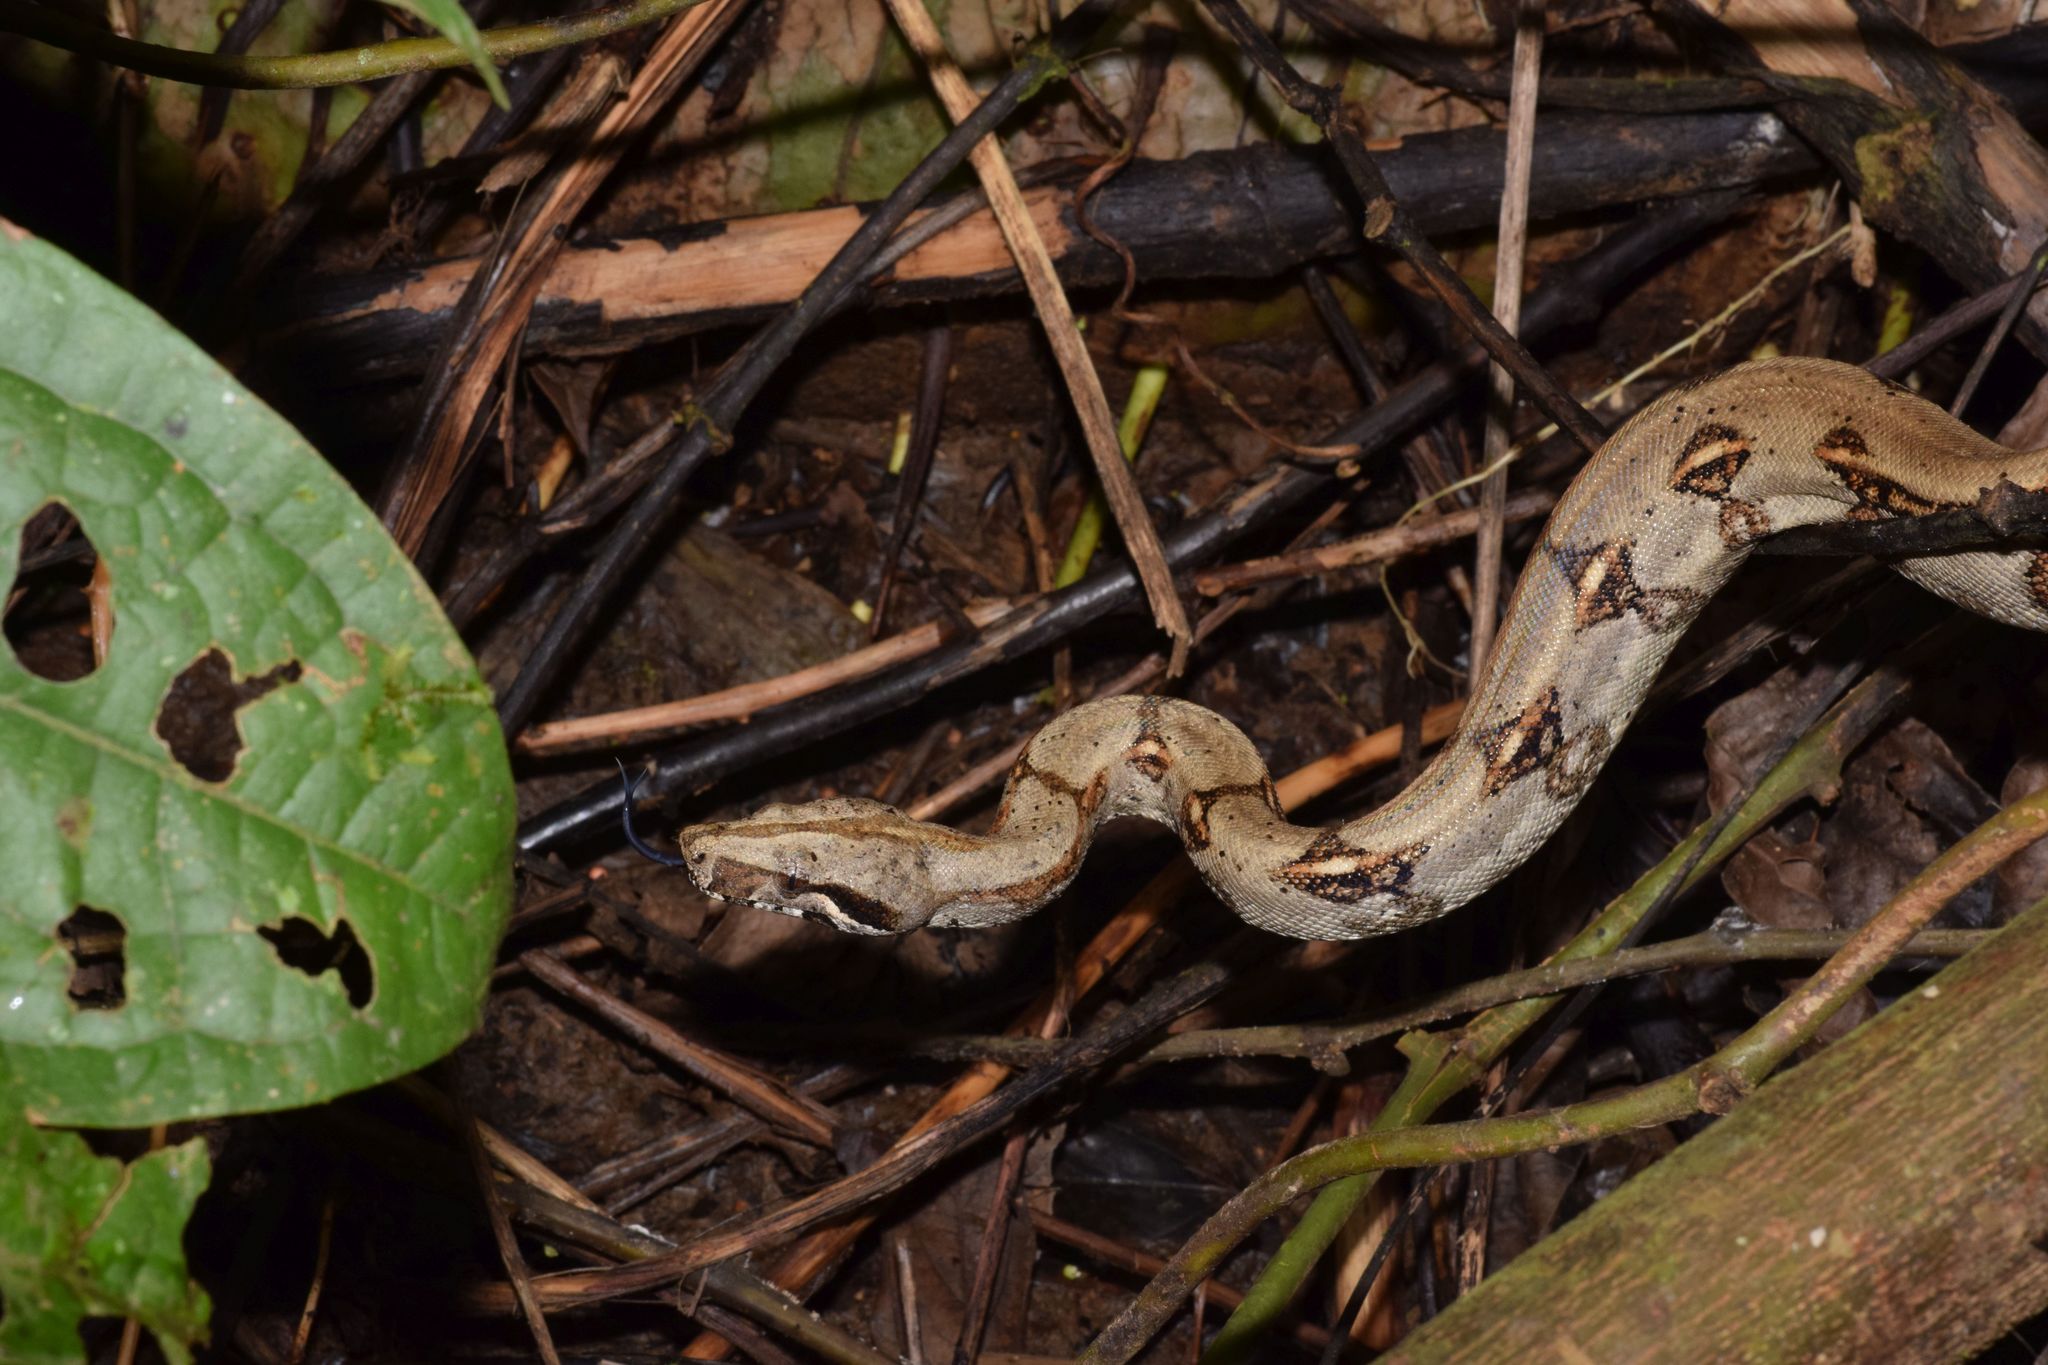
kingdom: Animalia
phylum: Chordata
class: Squamata
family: Boidae
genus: Boa
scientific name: Boa imperator
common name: Central american boa
